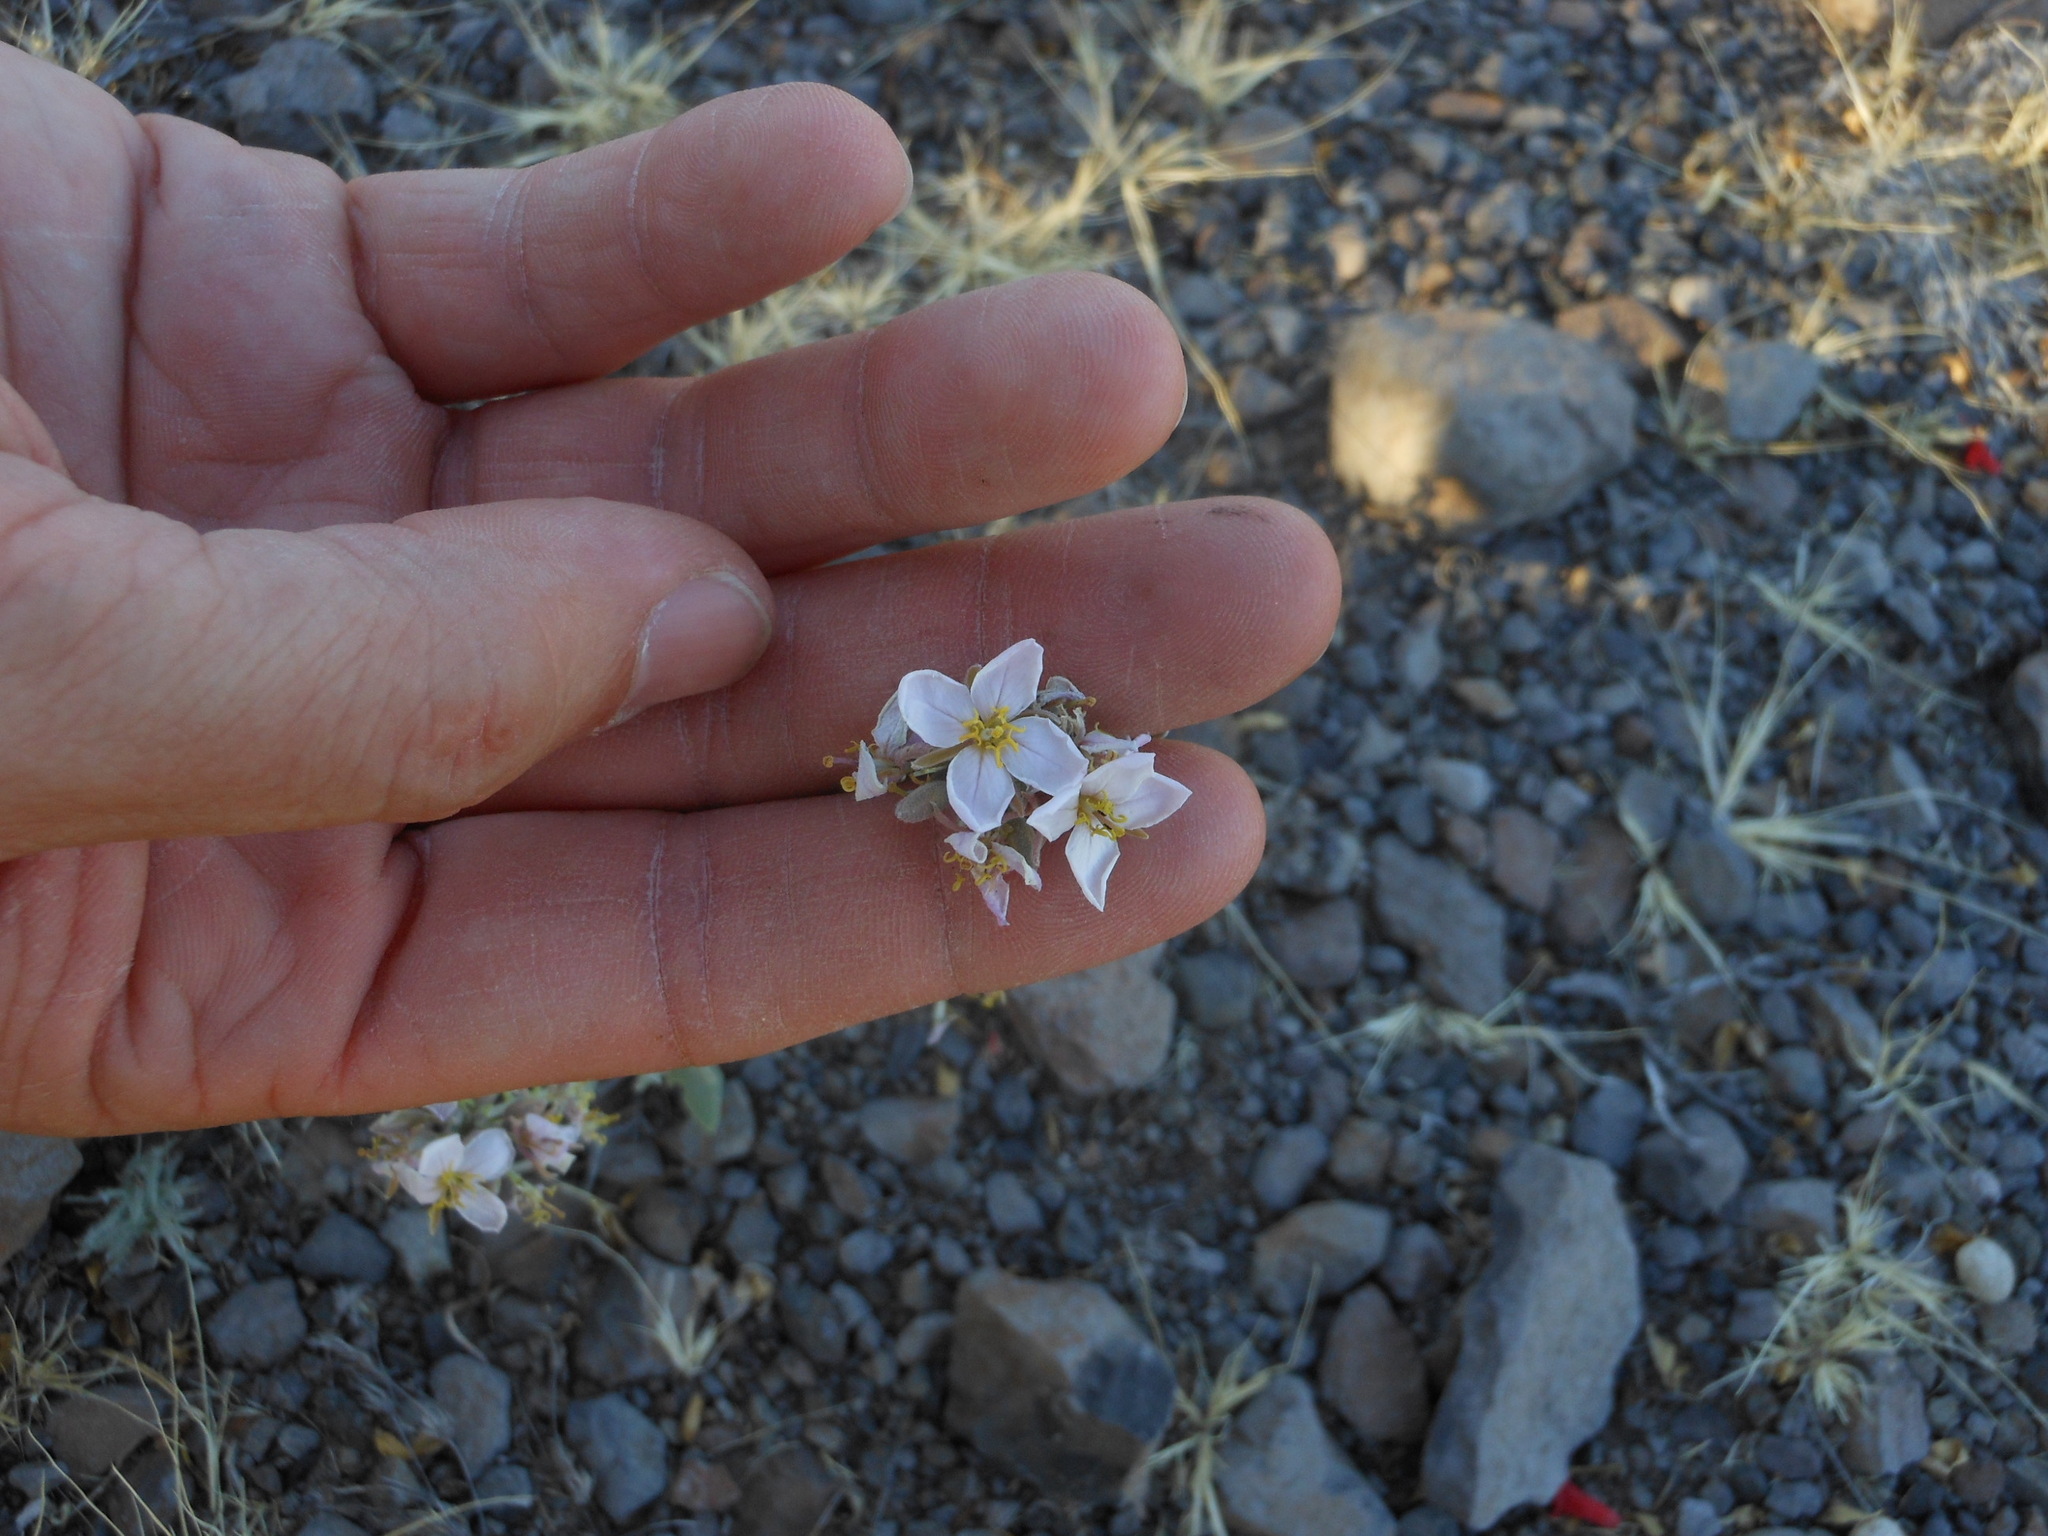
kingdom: Plantae
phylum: Tracheophyta
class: Magnoliopsida
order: Brassicales
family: Brassicaceae
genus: Nerisyrenia
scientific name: Nerisyrenia camporum
